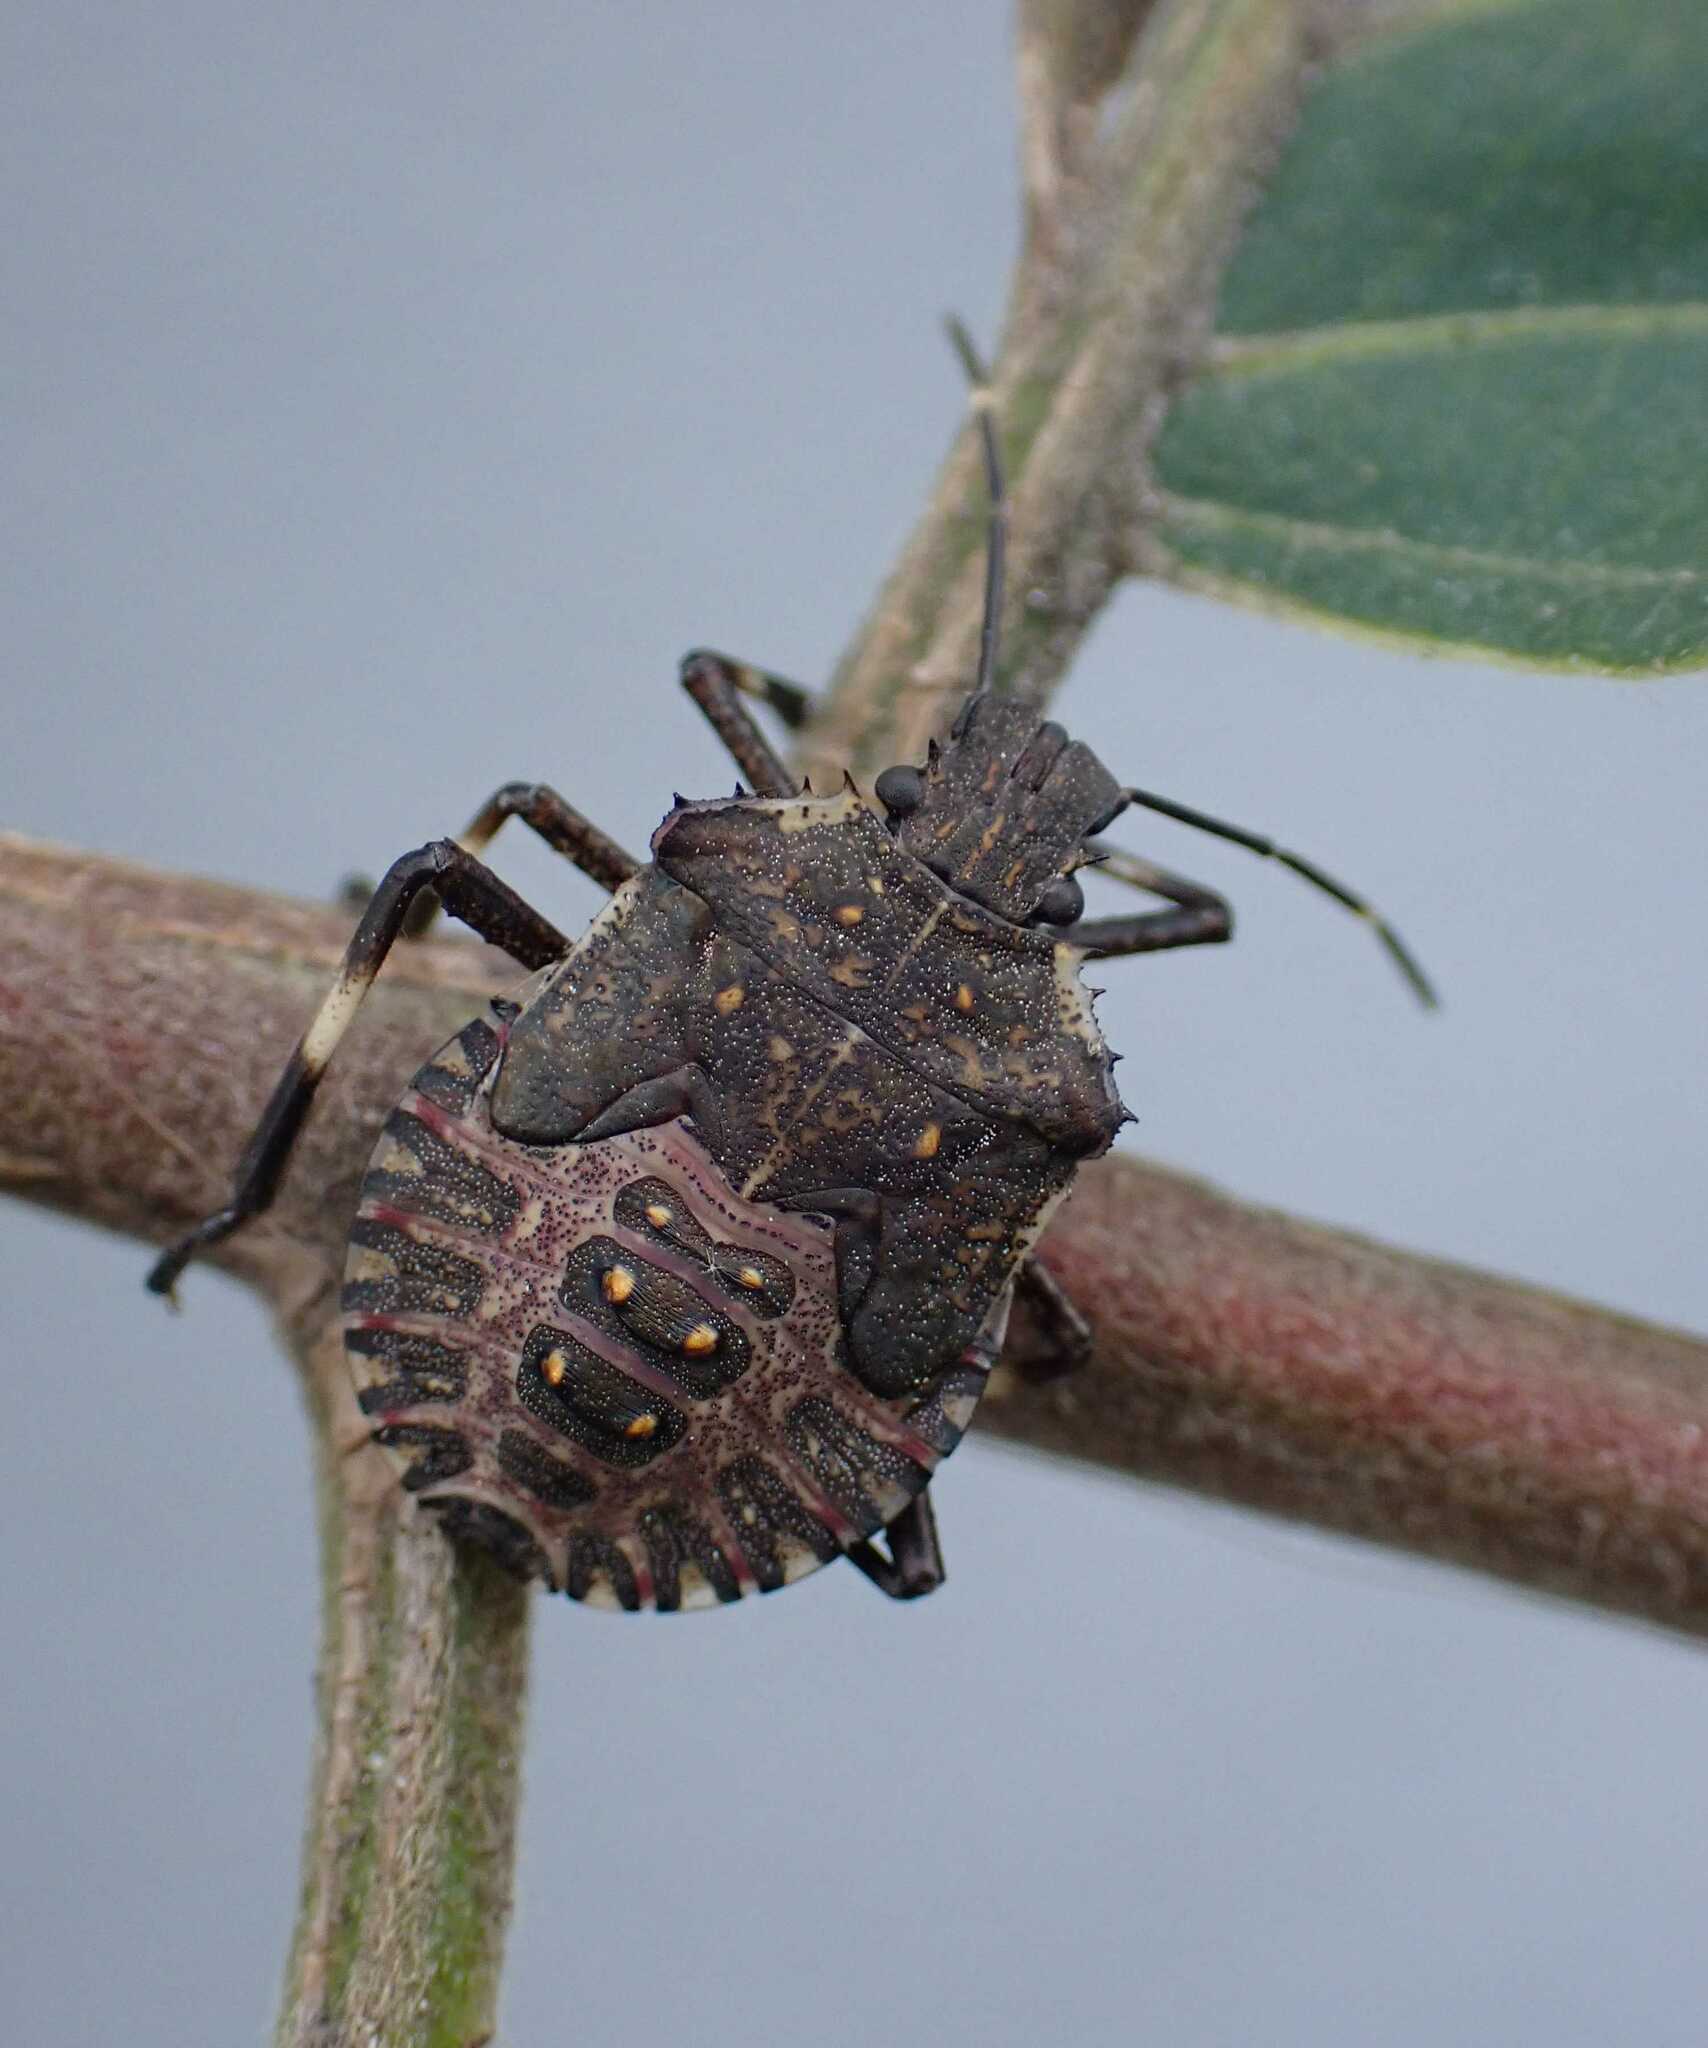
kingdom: Animalia
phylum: Arthropoda
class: Insecta
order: Hemiptera
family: Pentatomidae
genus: Halyomorpha
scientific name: Halyomorpha halys
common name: Brown marmorated stink bug
